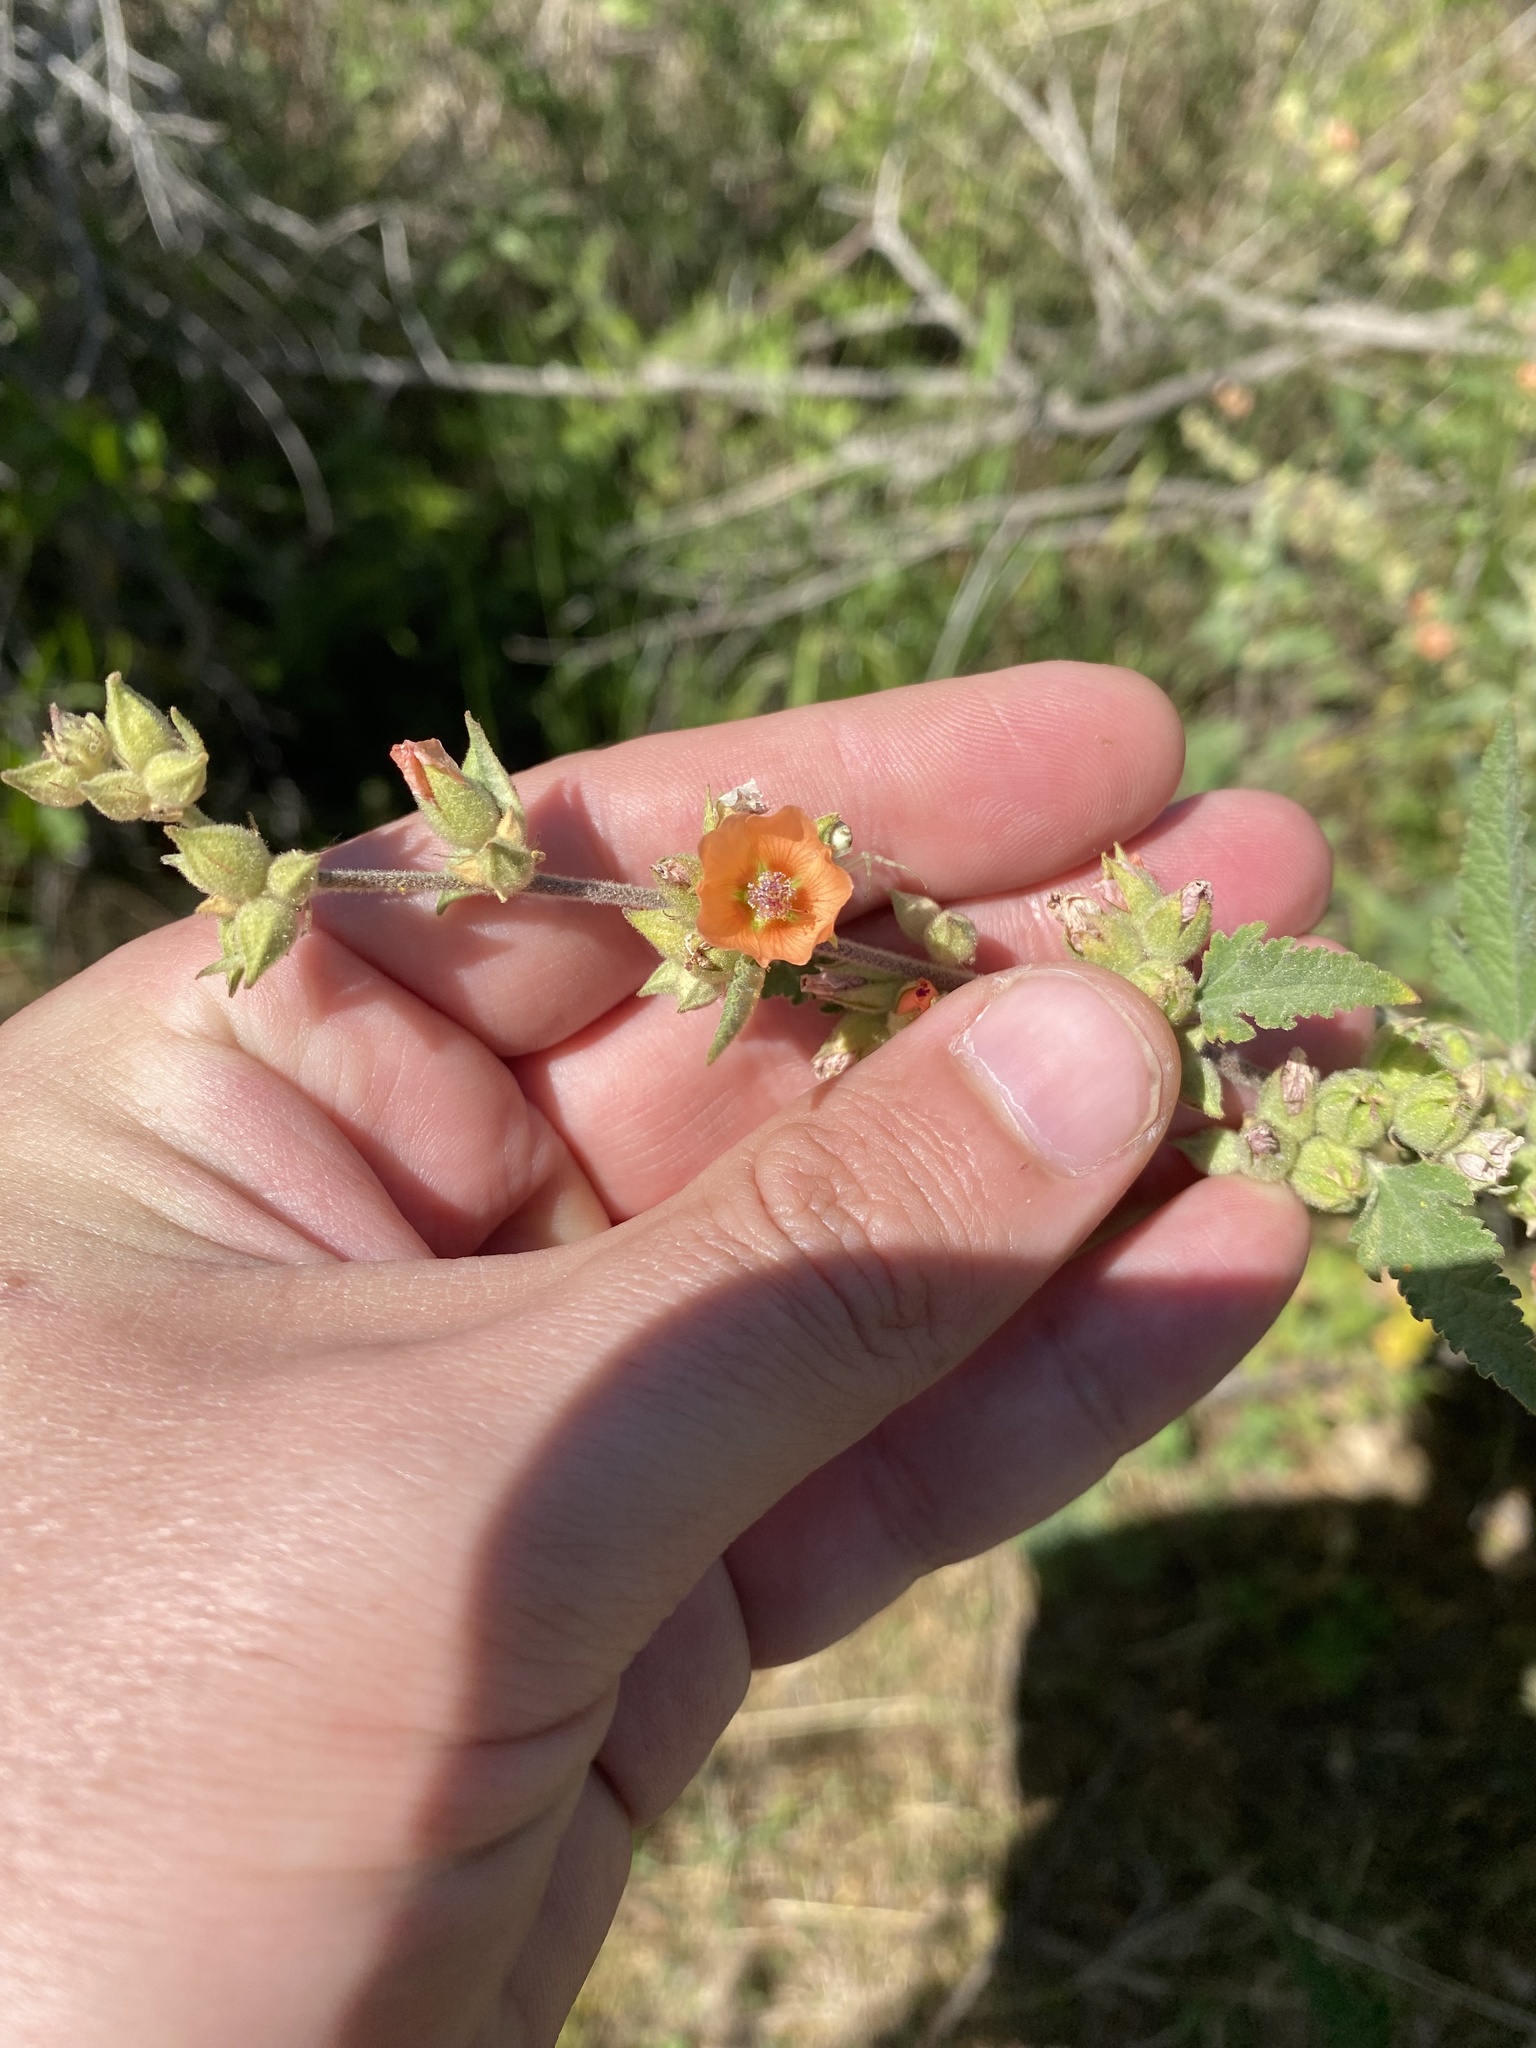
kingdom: Plantae
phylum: Tracheophyta
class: Magnoliopsida
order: Malvales
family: Malvaceae
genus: Sphaeralcea
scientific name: Sphaeralcea bonariensis
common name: Latin globemallow
